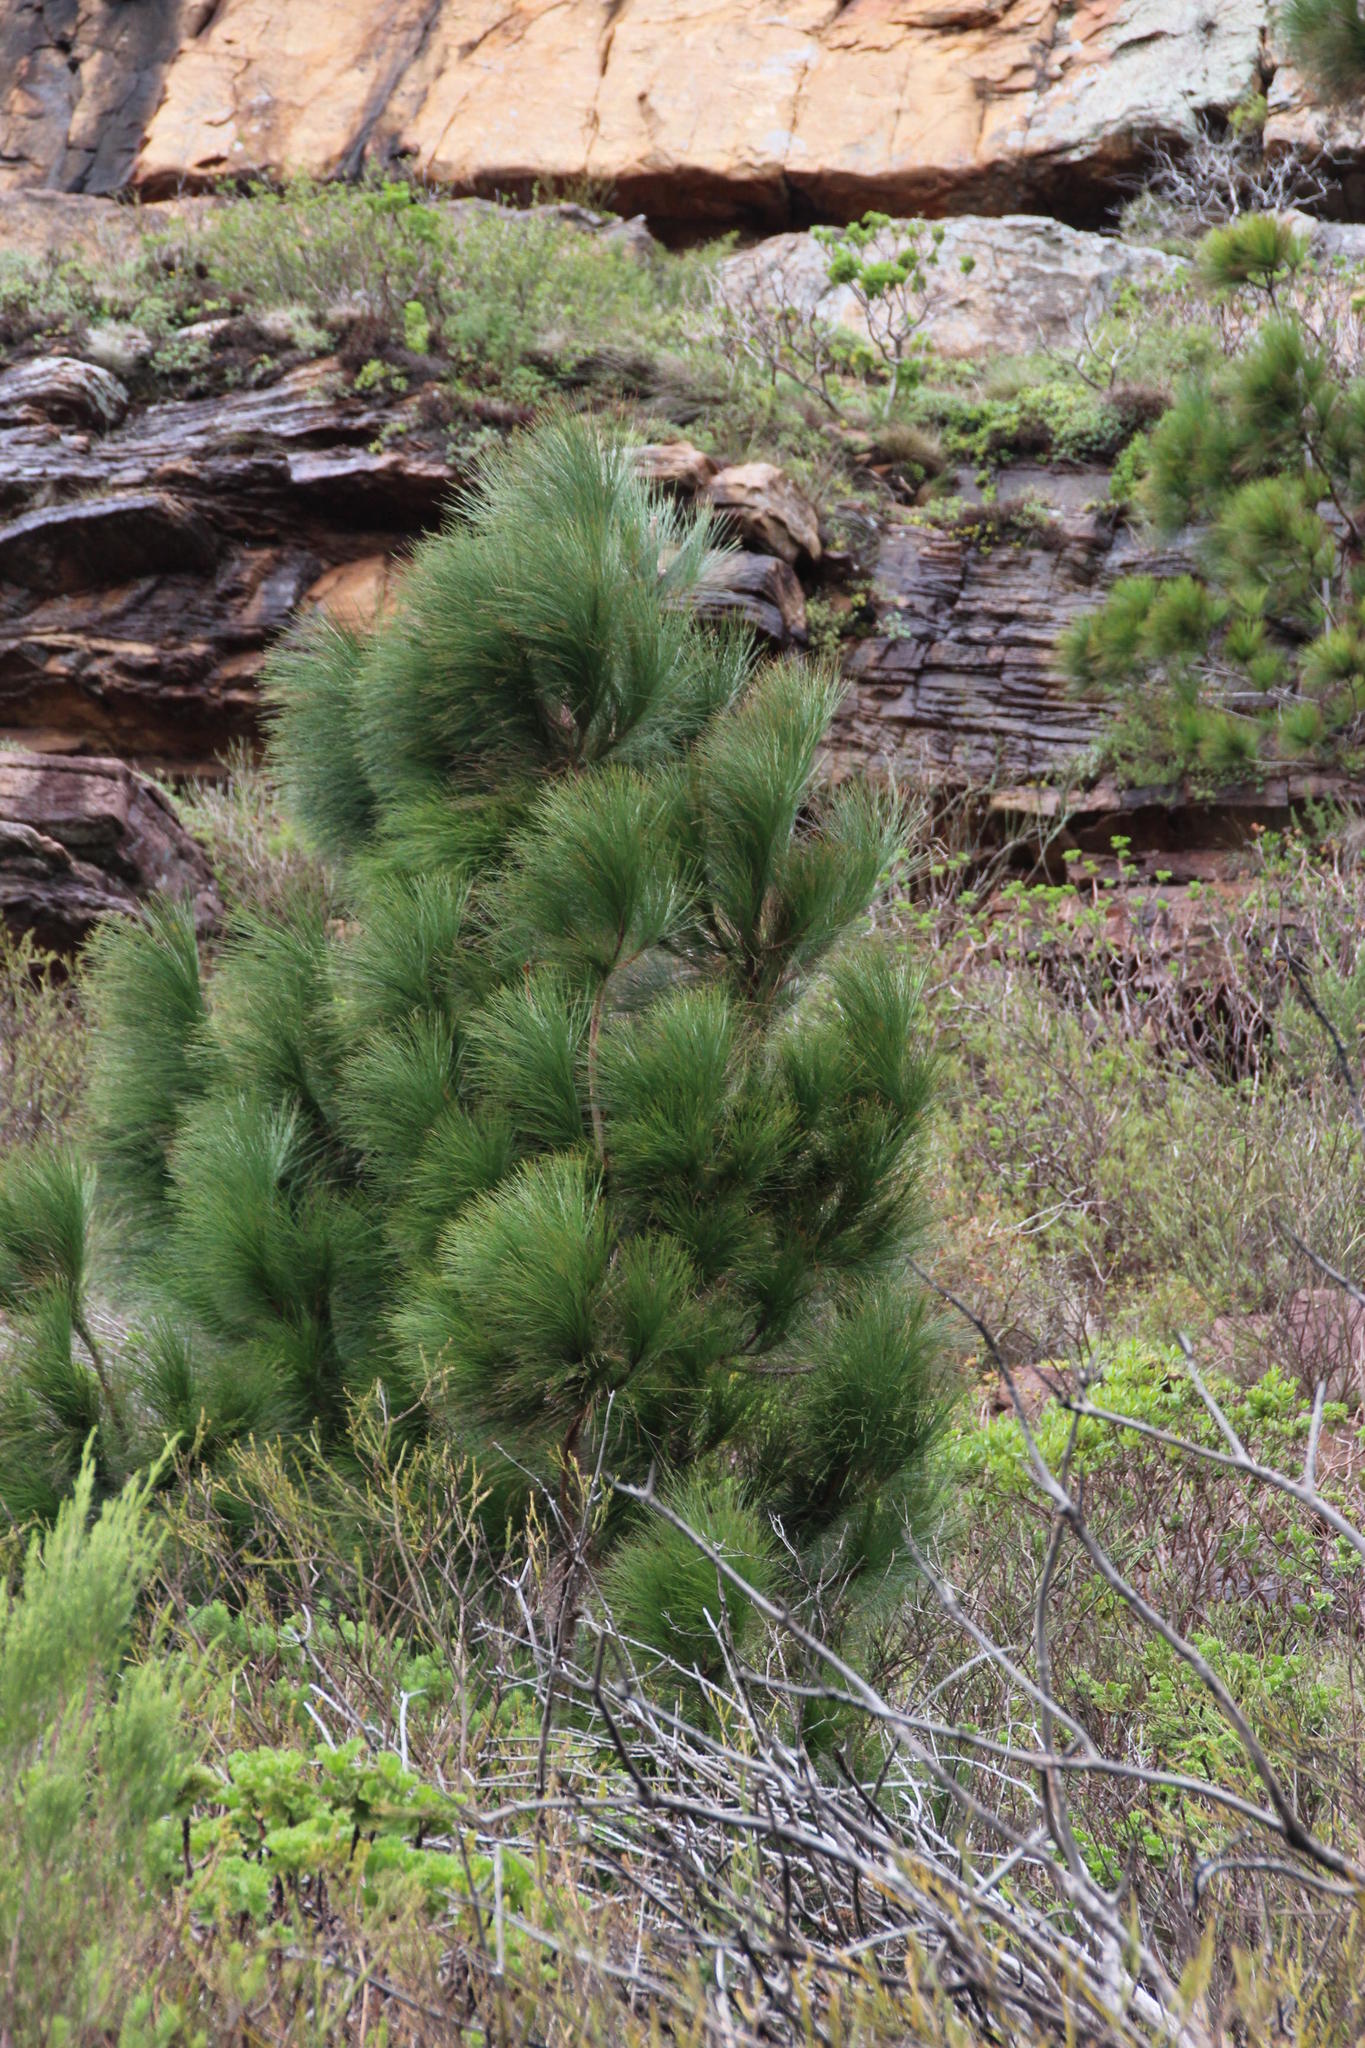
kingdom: Plantae
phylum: Tracheophyta
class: Pinopsida
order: Pinales
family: Pinaceae
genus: Pinus
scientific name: Pinus canariensis
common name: Canary islands pine
